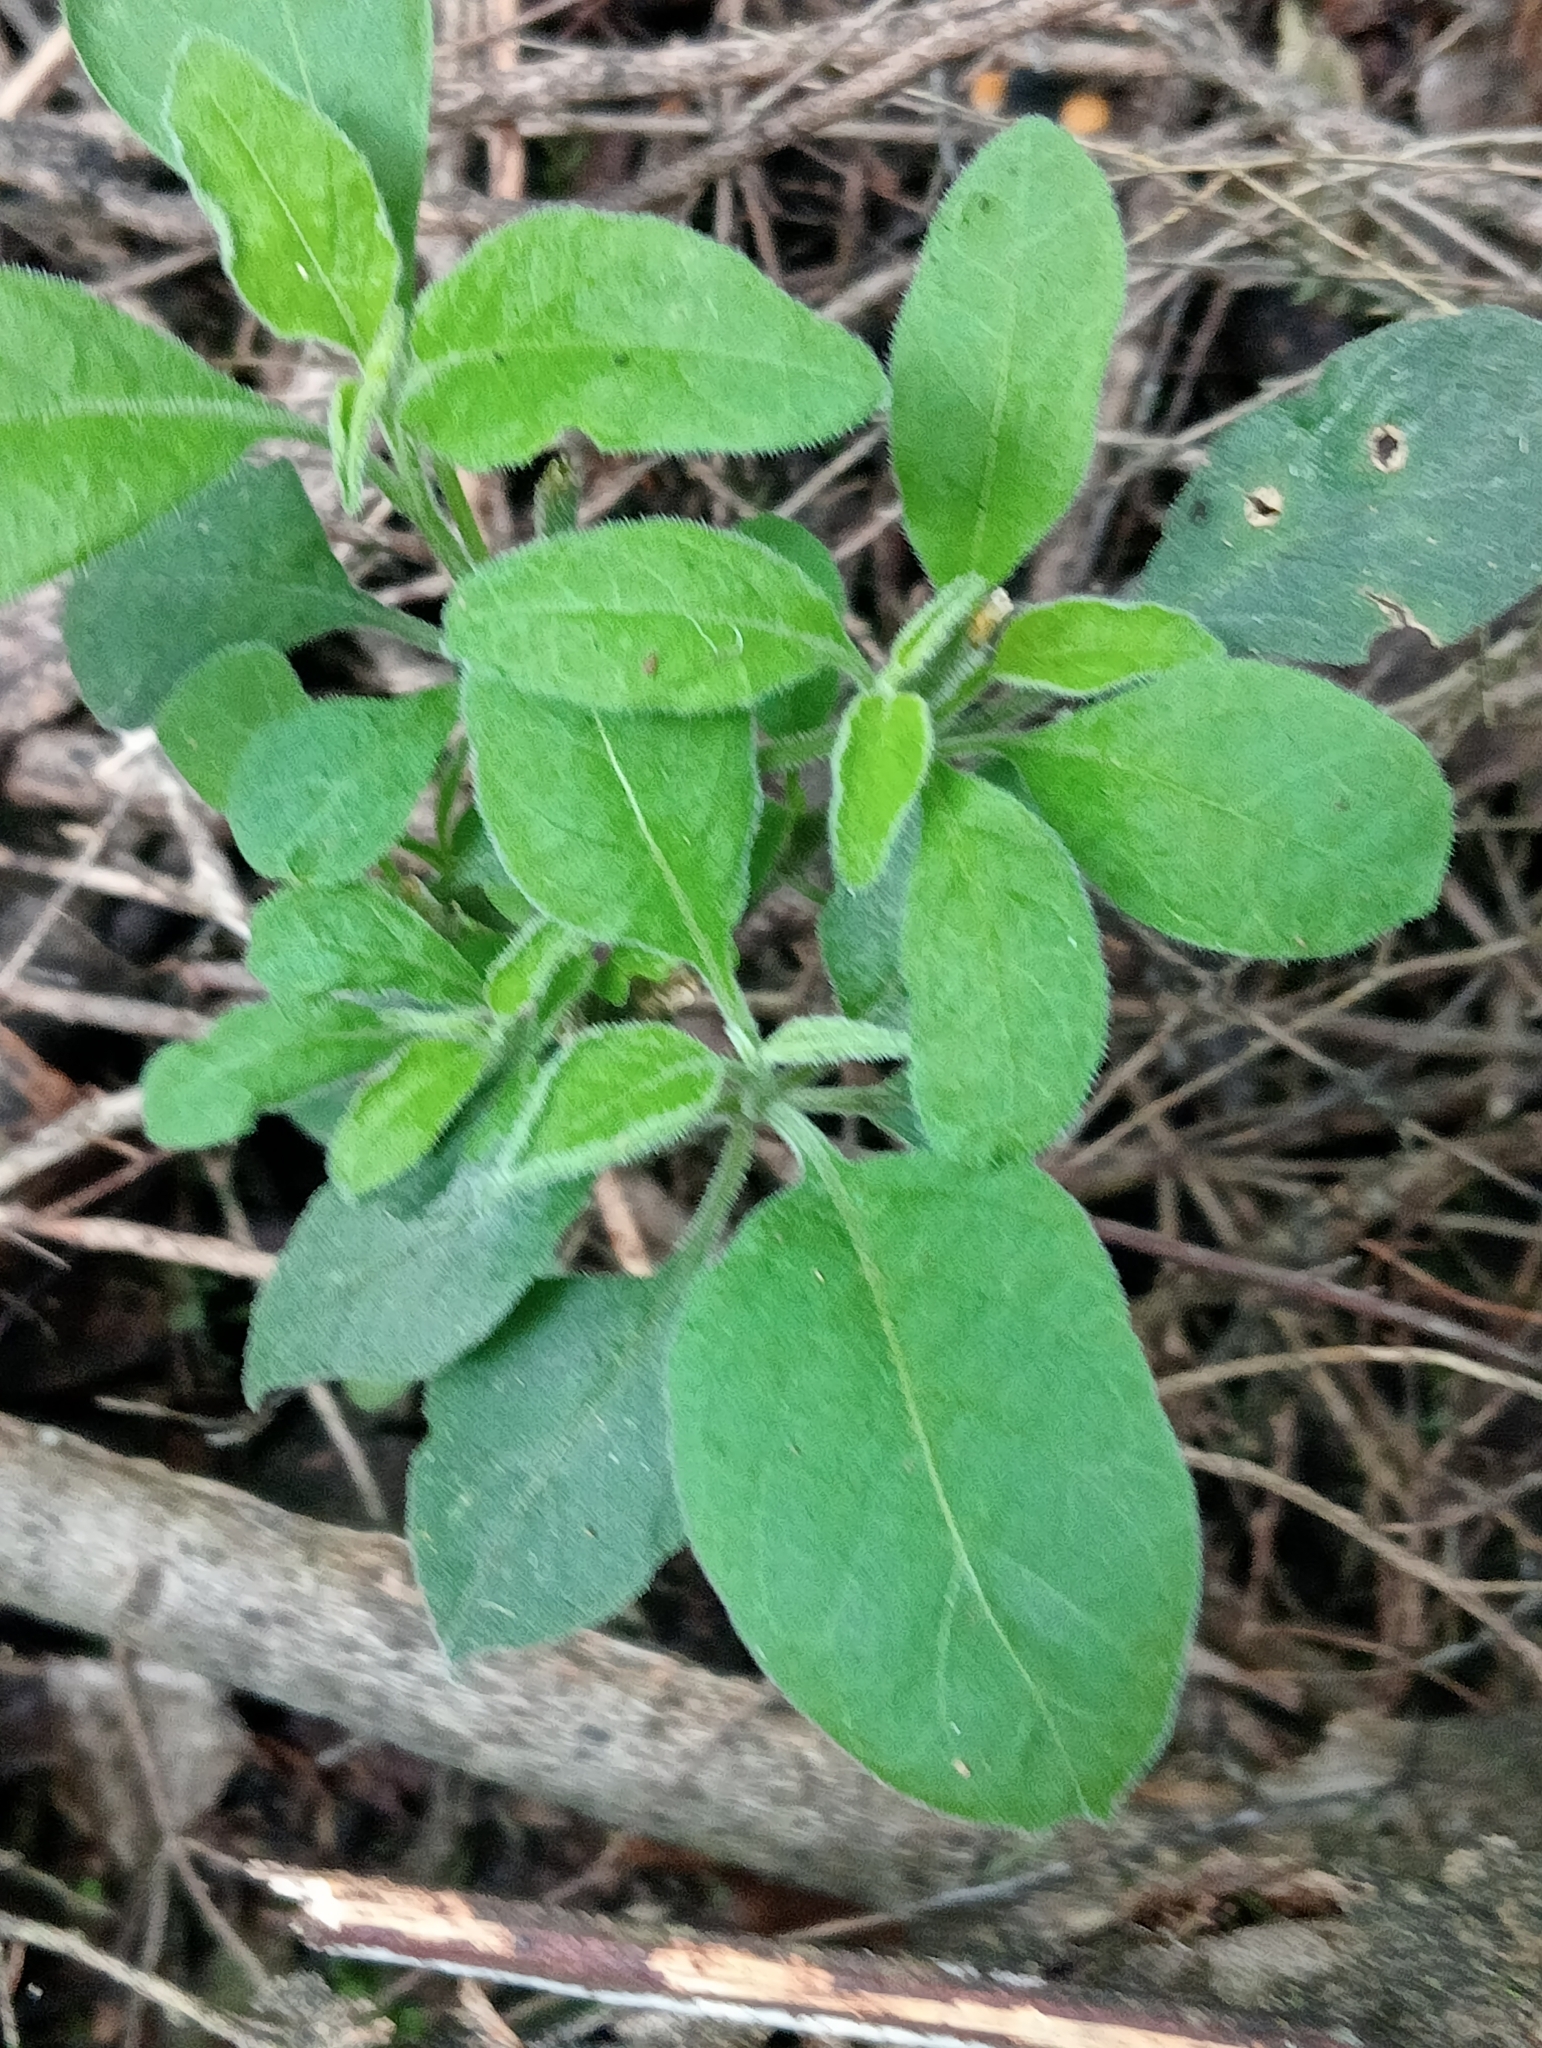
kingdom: Plantae
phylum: Tracheophyta
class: Magnoliopsida
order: Solanales
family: Solanaceae
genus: Solanum
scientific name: Solanum chenopodioides
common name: Tall nightshade
